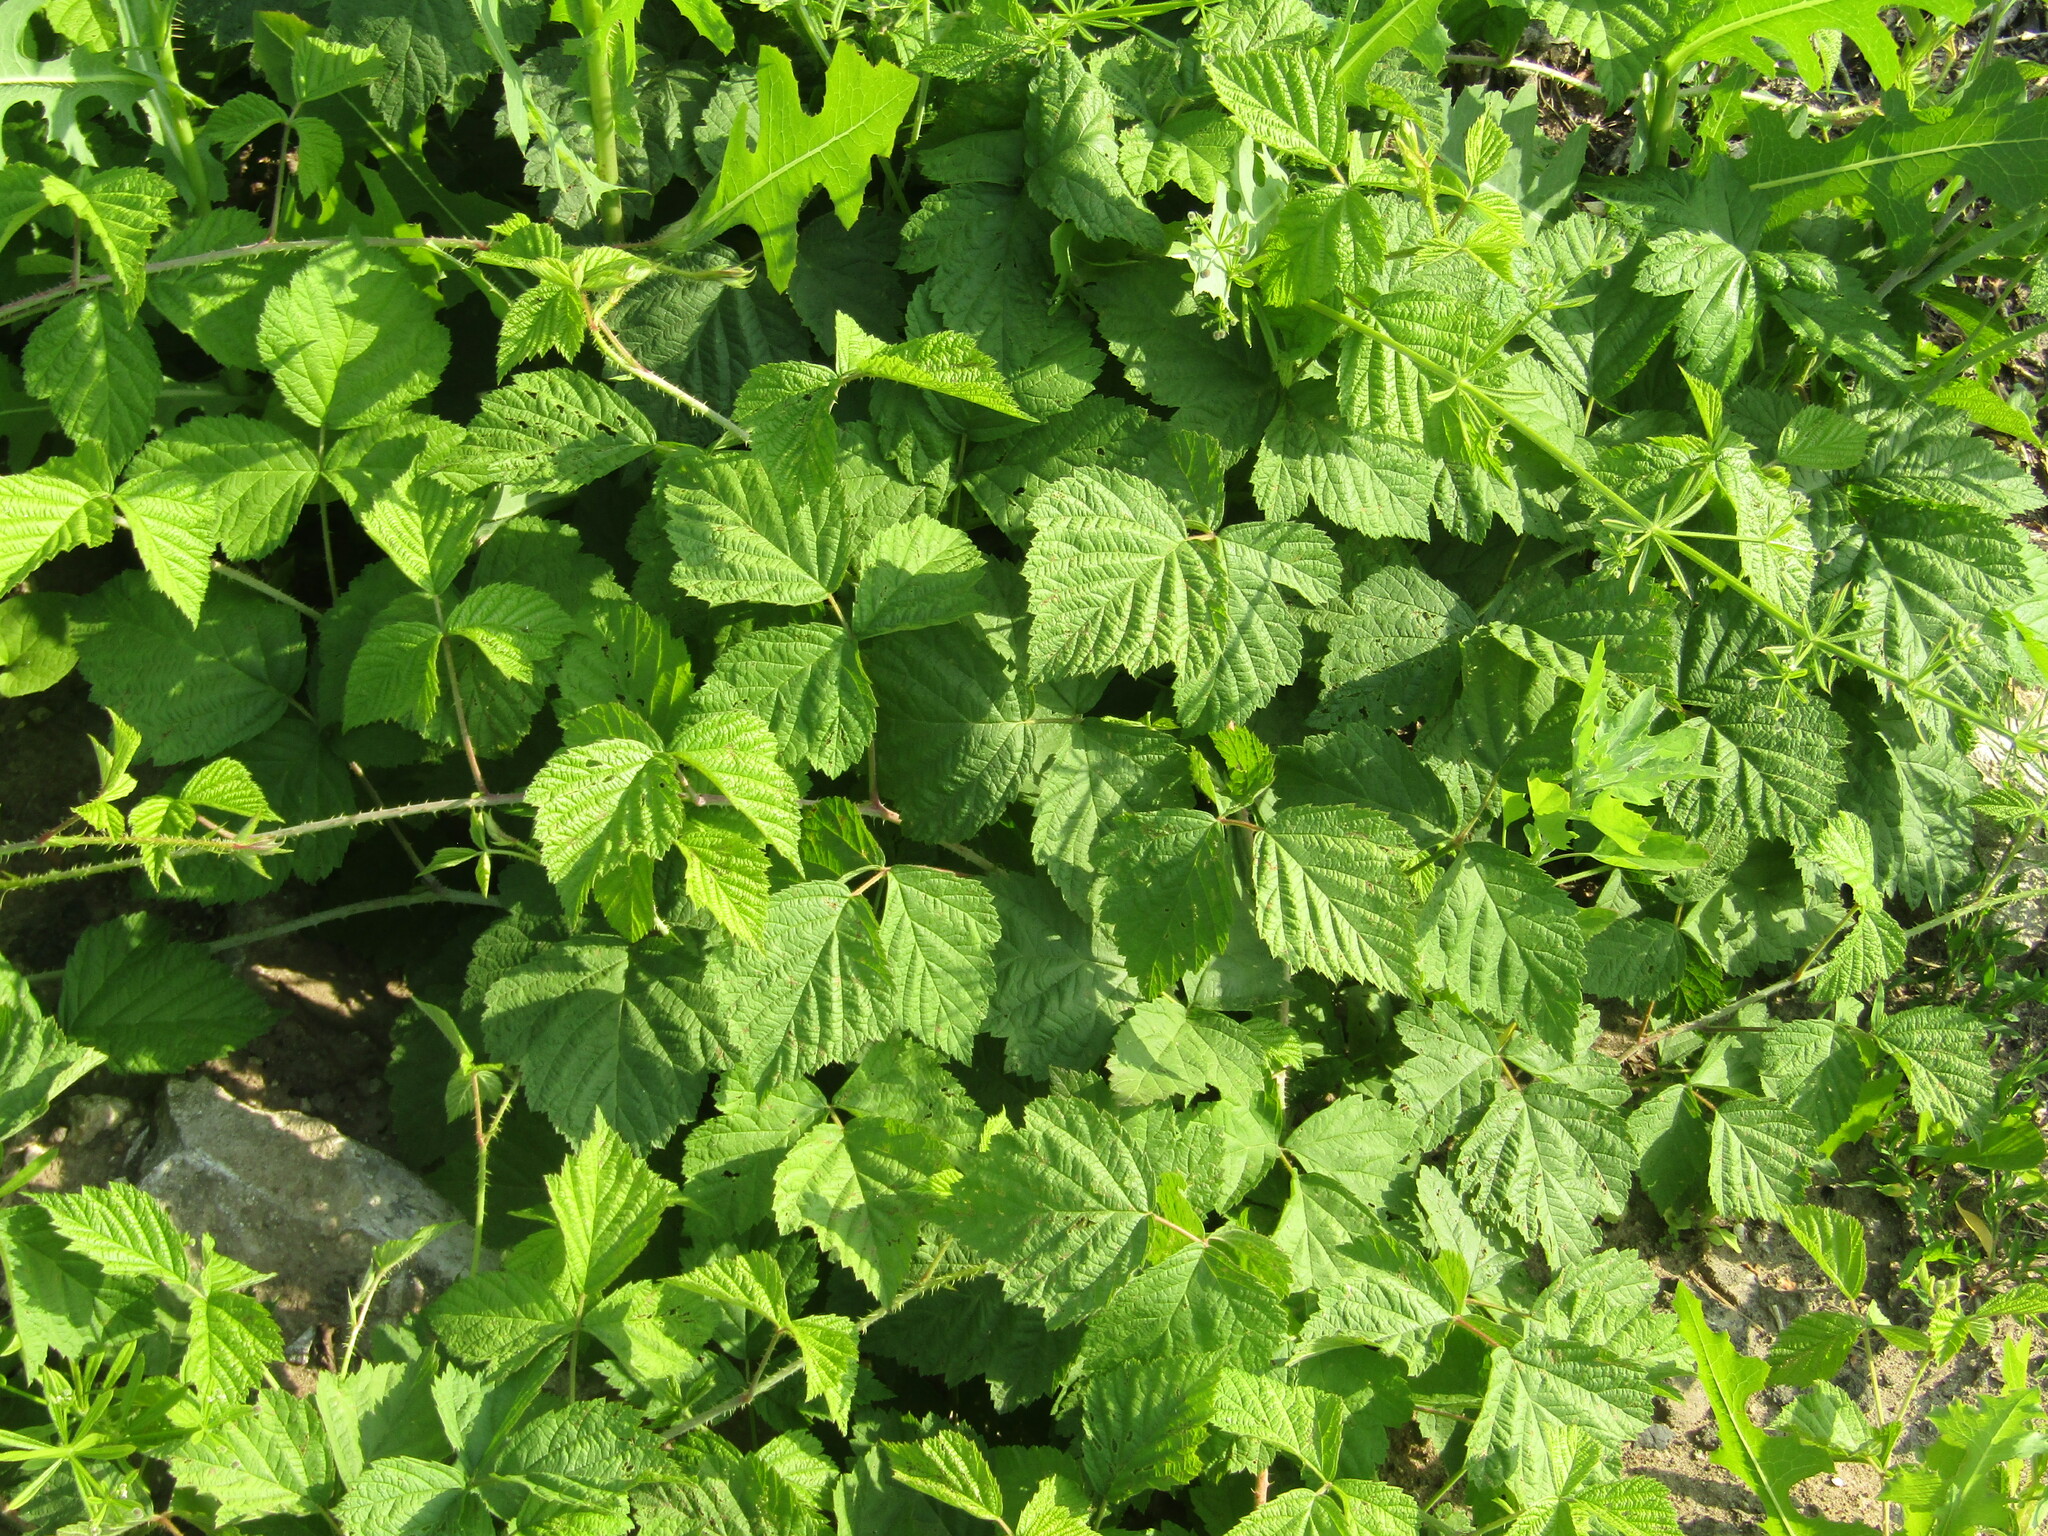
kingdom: Plantae
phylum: Tracheophyta
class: Magnoliopsida
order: Rosales
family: Rosaceae
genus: Rubus
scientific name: Rubus caesius
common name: Dewberry
